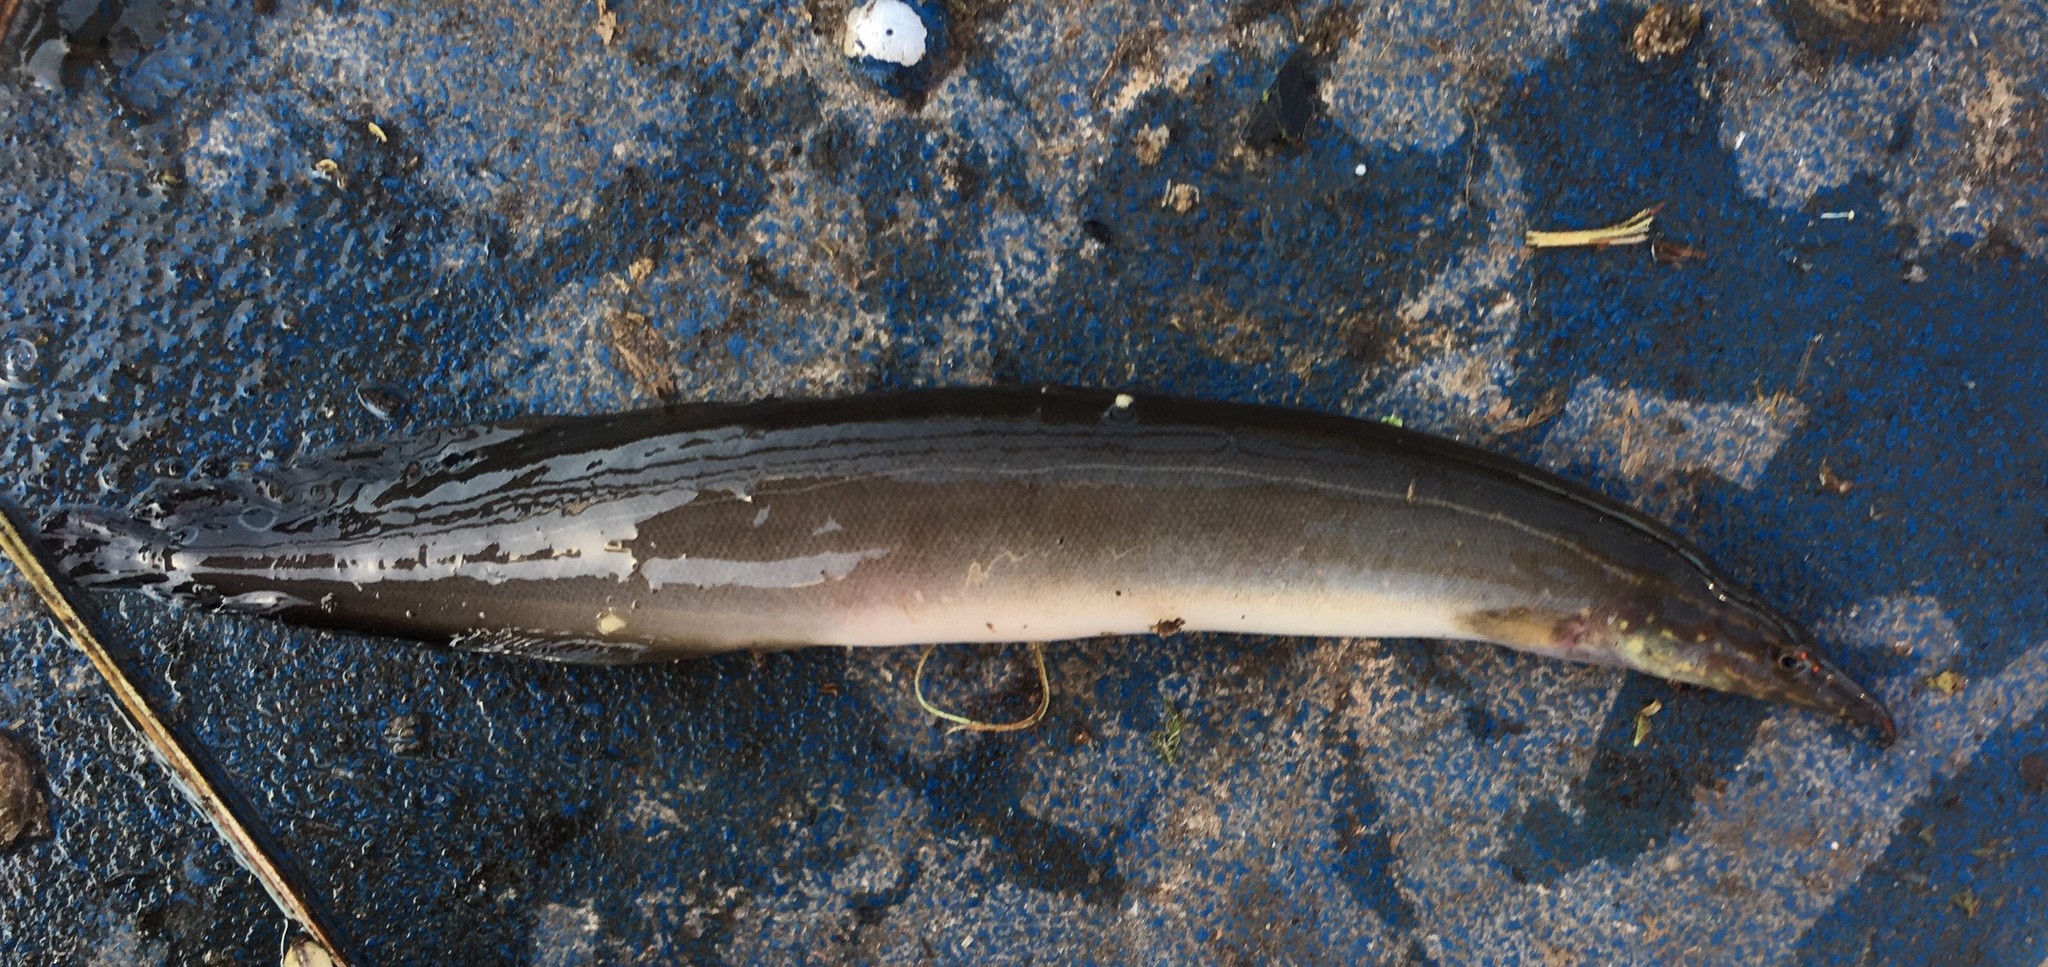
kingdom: Animalia
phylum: Chordata
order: Synbranchiformes
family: Mastacembelidae
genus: Macrognathus
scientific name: Macrognathus siamensis
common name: Spotfin spiny eel
